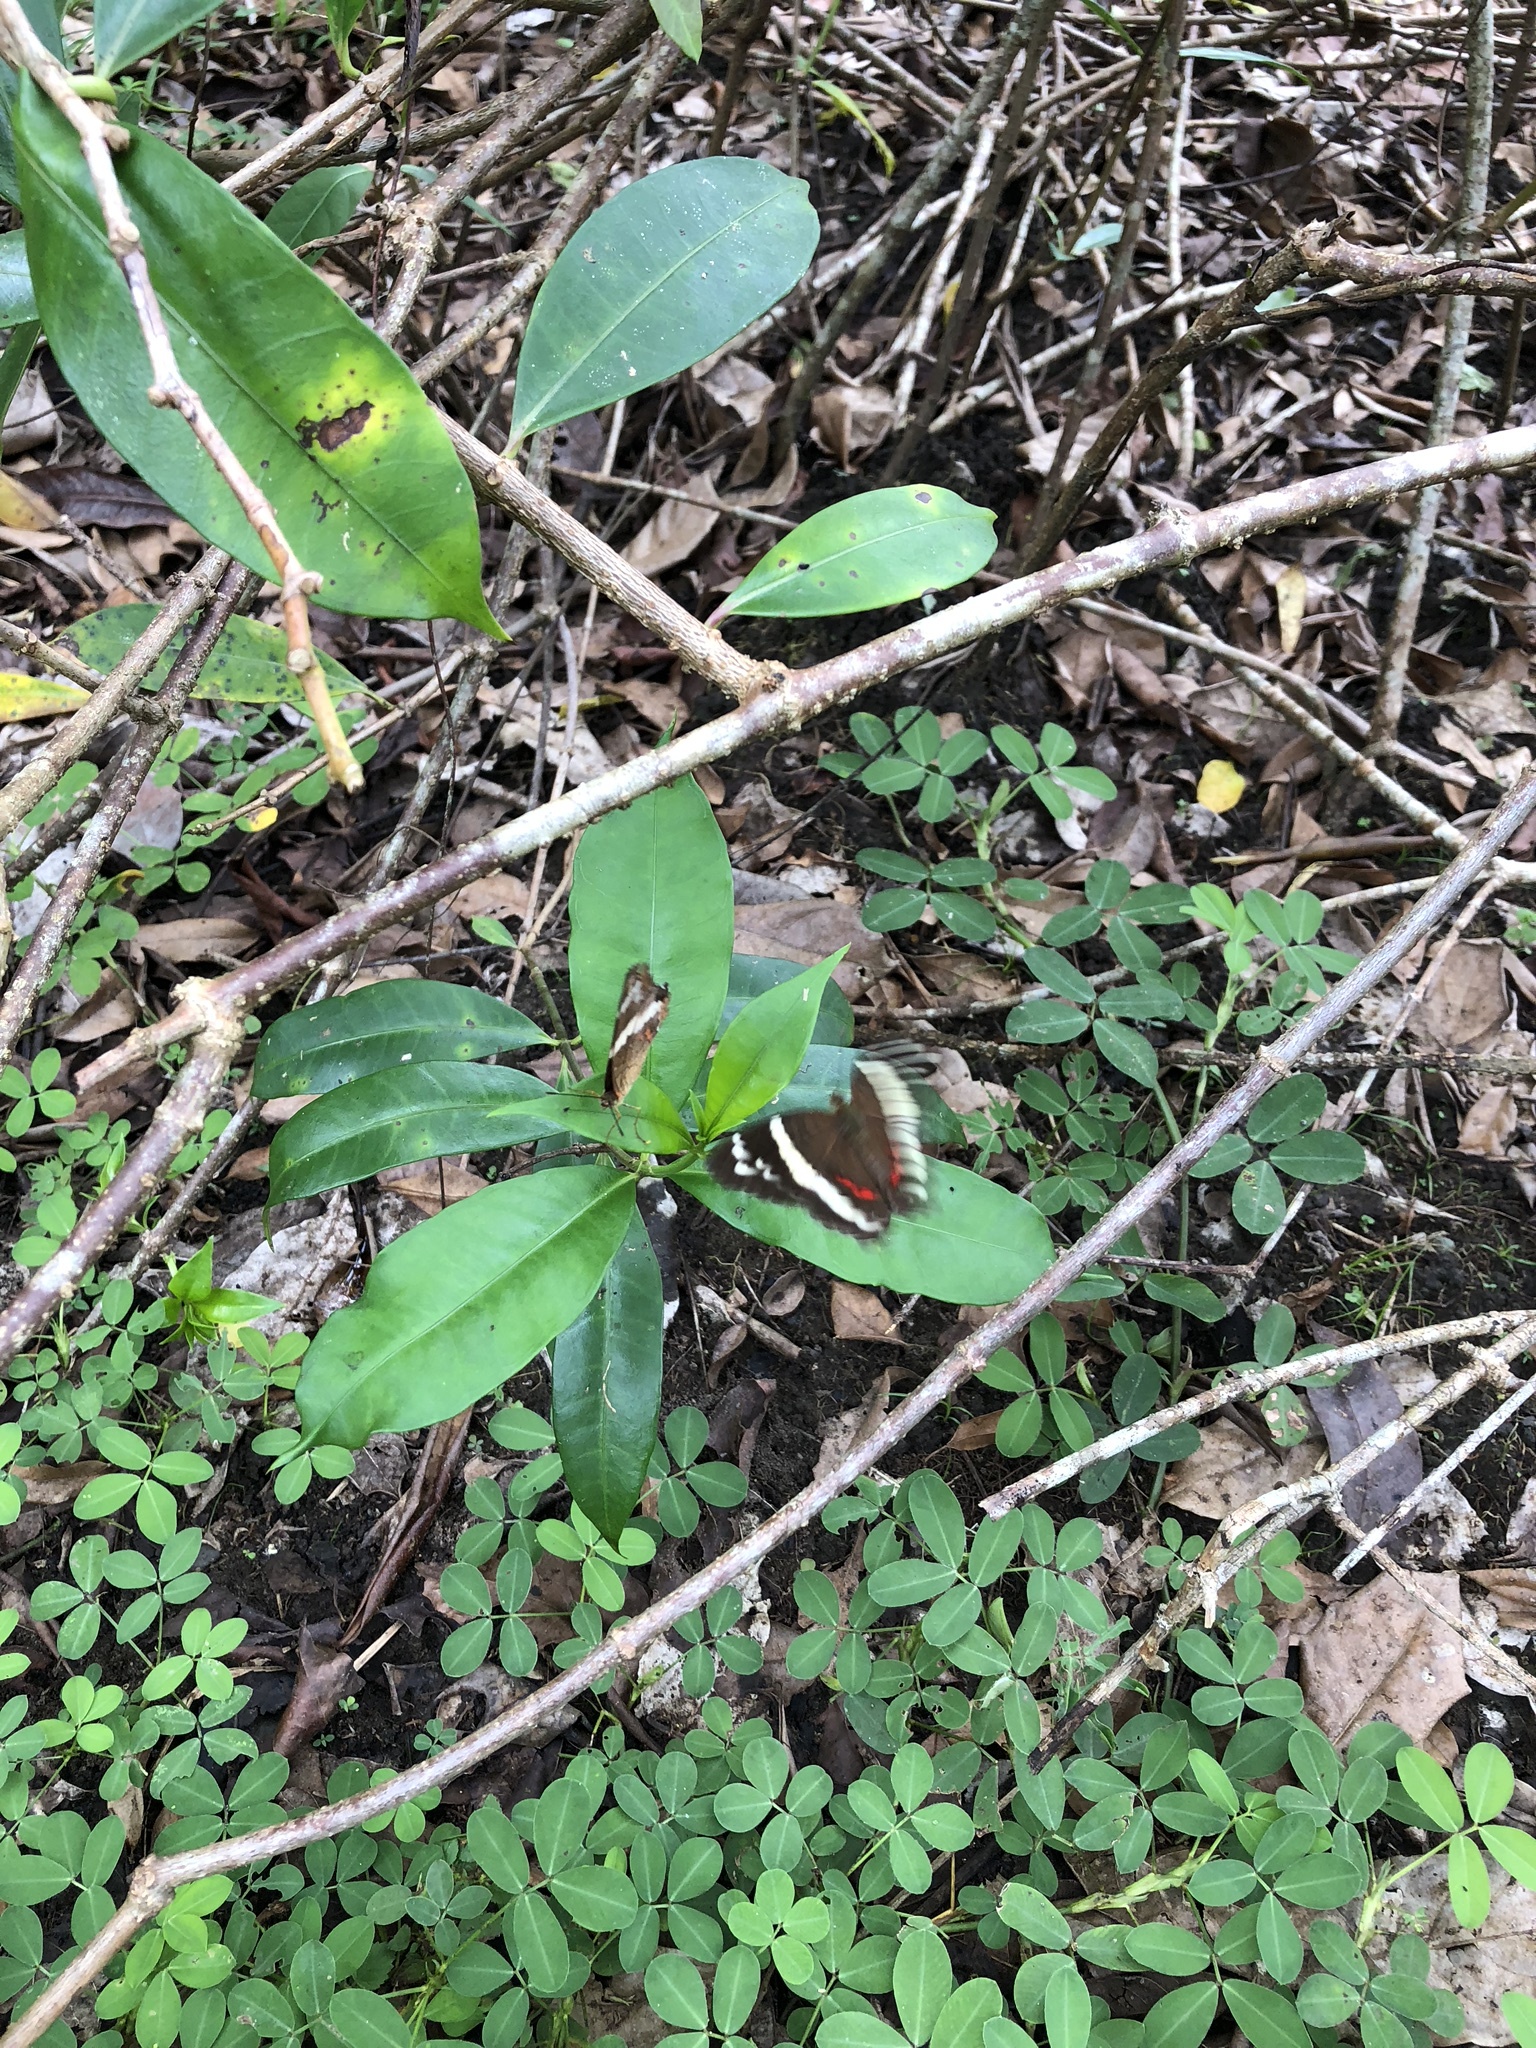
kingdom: Animalia
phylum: Arthropoda
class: Insecta
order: Lepidoptera
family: Nymphalidae
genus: Anartia
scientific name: Anartia fatima
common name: Banded peacock
